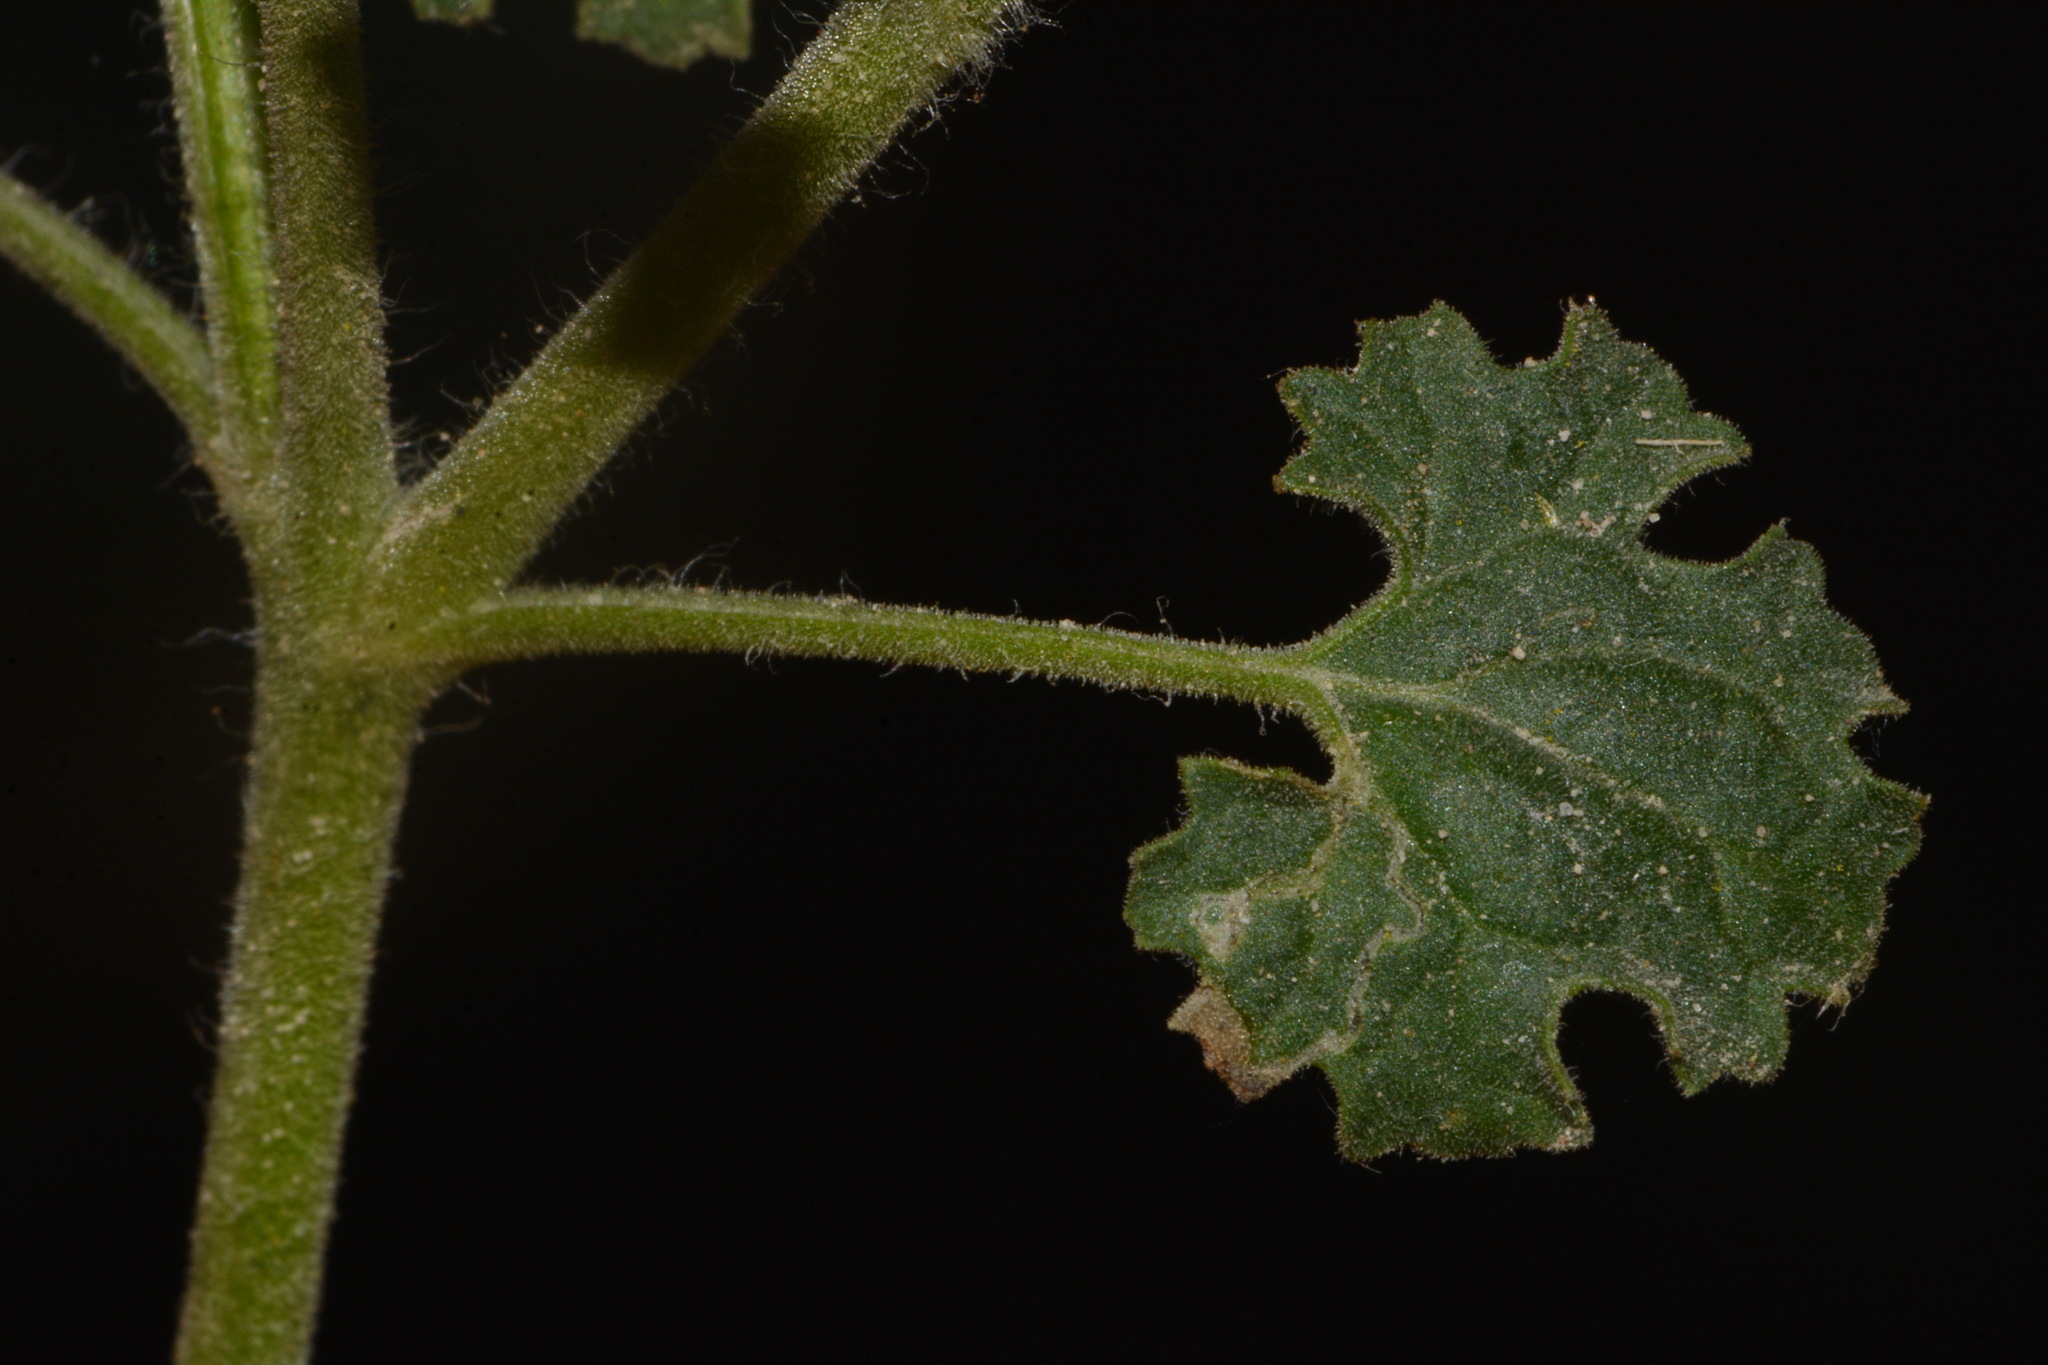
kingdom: Plantae
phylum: Tracheophyta
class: Magnoliopsida
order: Asterales
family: Asteraceae
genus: Laphamia
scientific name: Laphamia parryi
